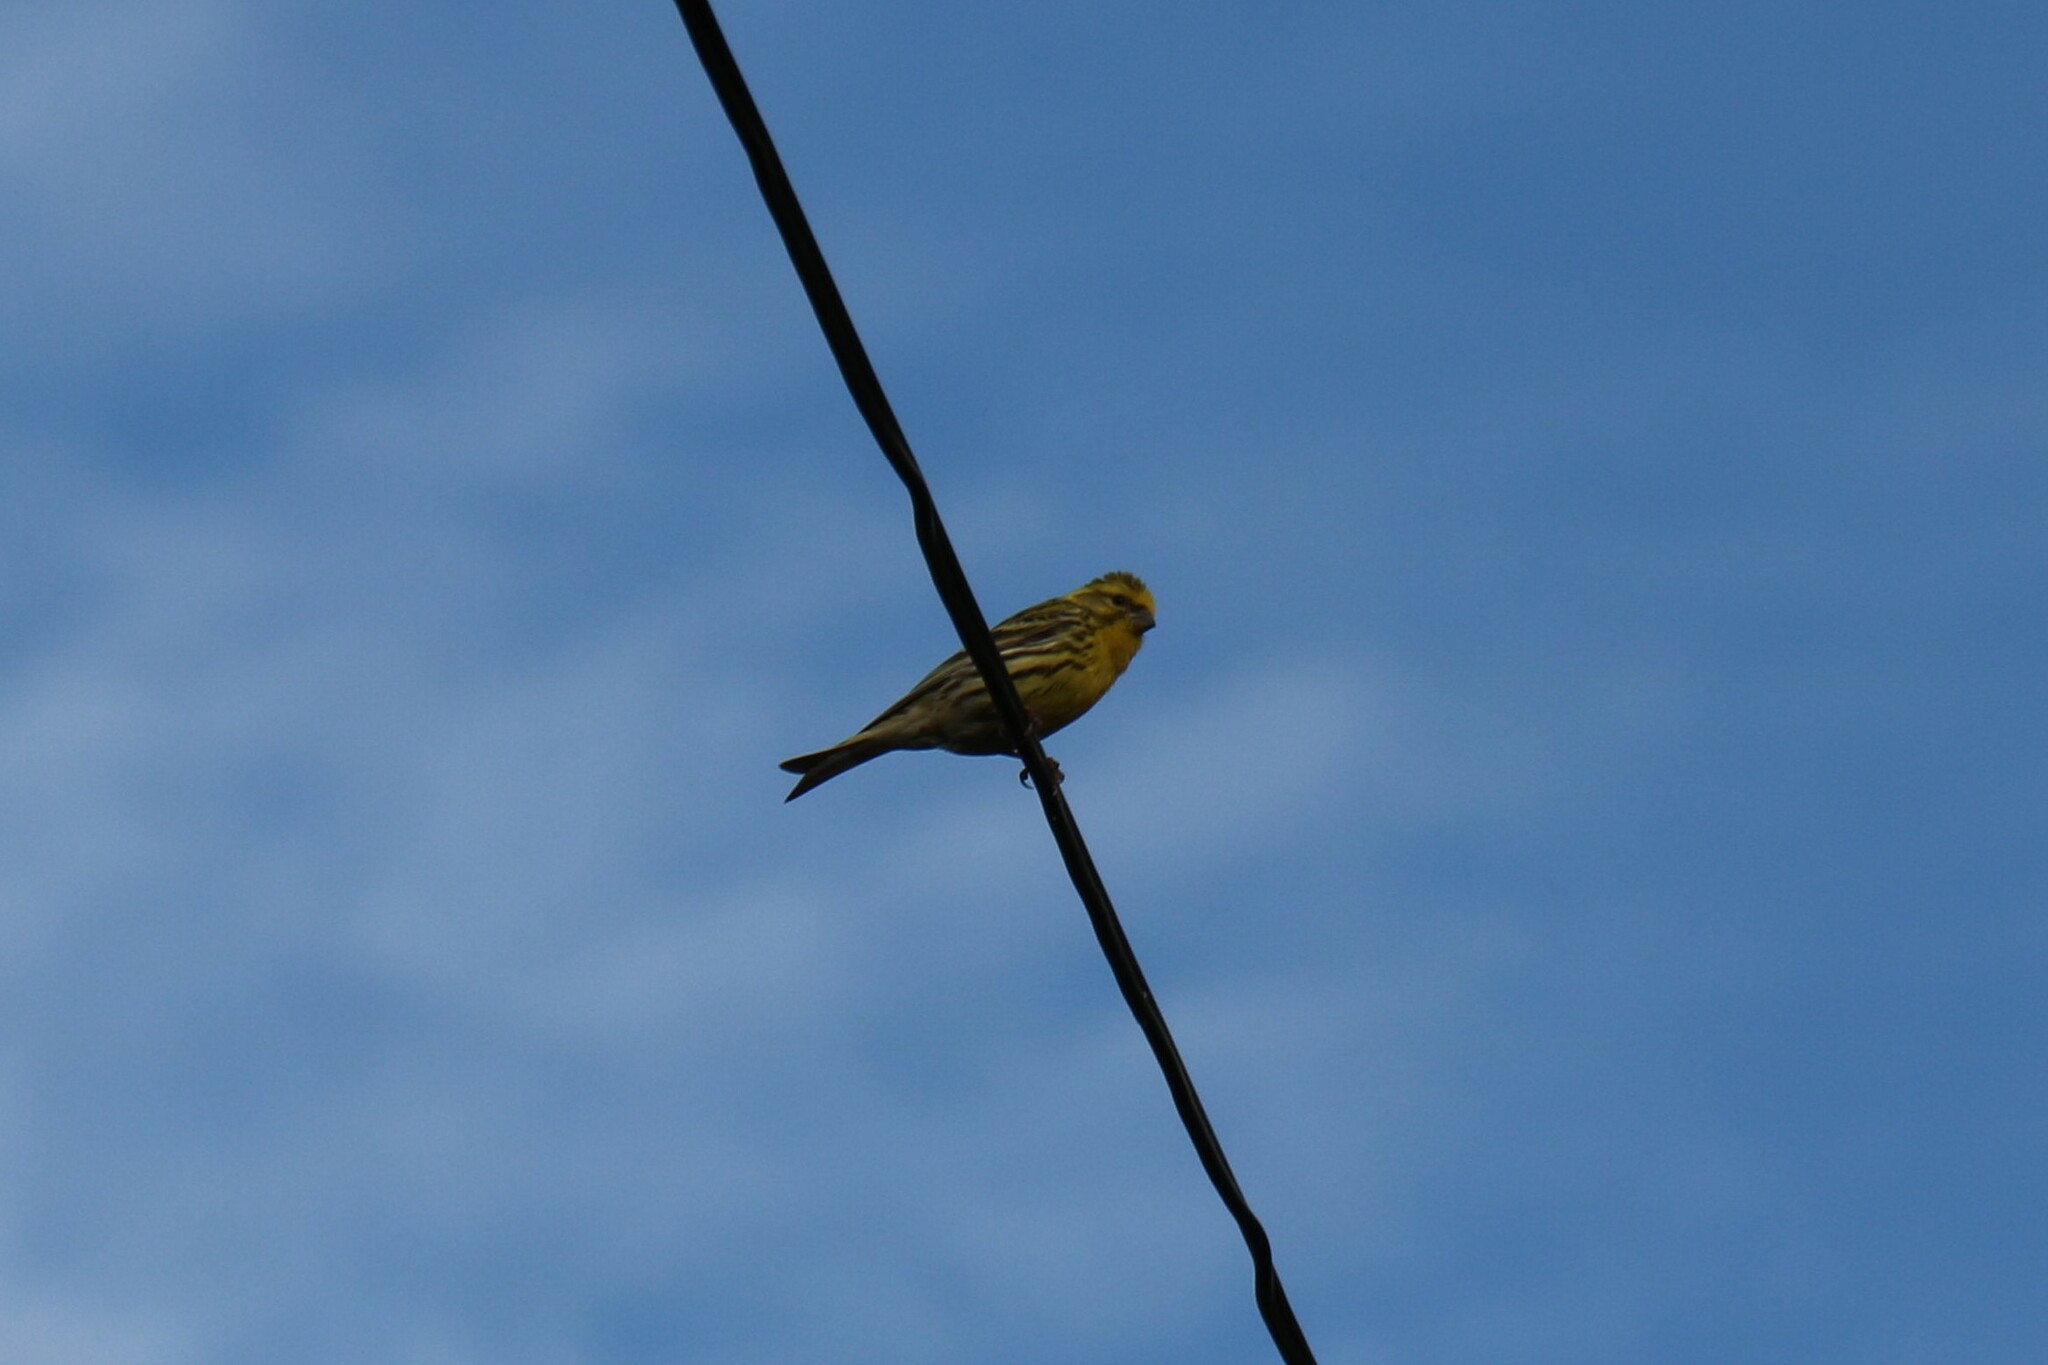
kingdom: Animalia
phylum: Chordata
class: Aves
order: Passeriformes
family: Fringillidae
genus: Serinus
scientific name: Serinus serinus
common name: European serin
